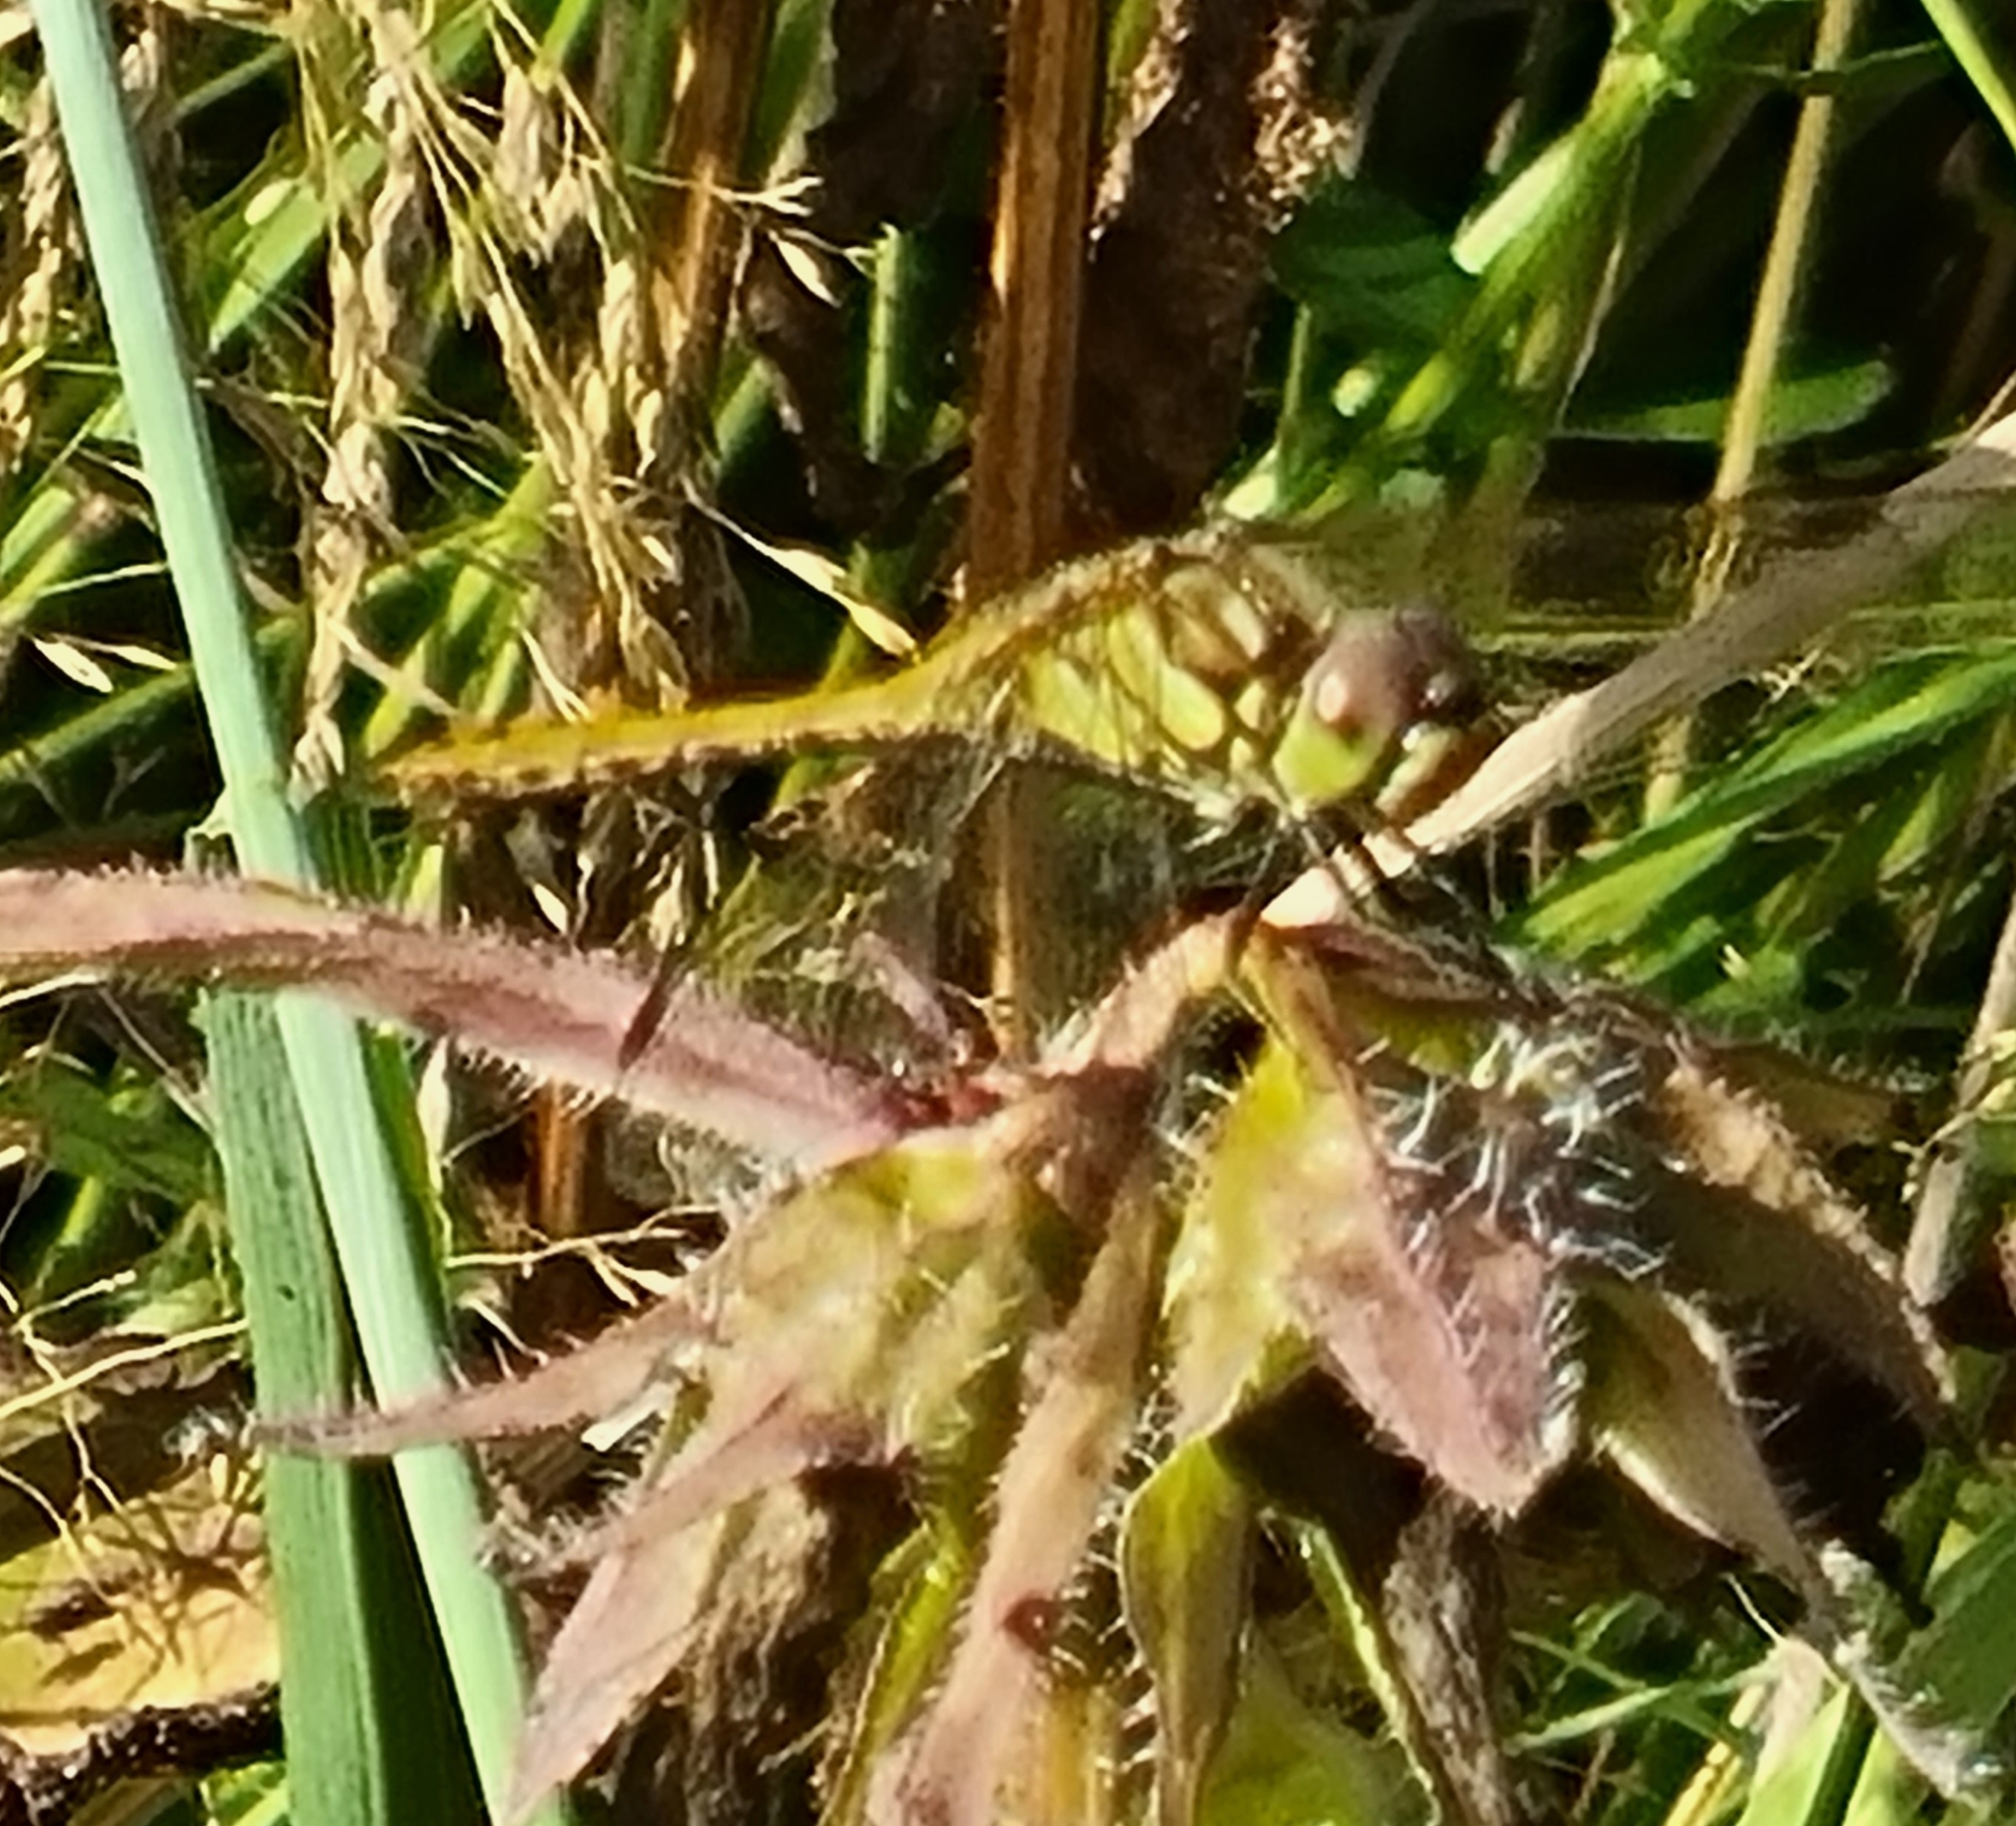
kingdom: Animalia
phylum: Arthropoda
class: Insecta
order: Odonata
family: Libellulidae
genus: Sympetrum
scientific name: Sympetrum vulgatum
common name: Vagrant darter
